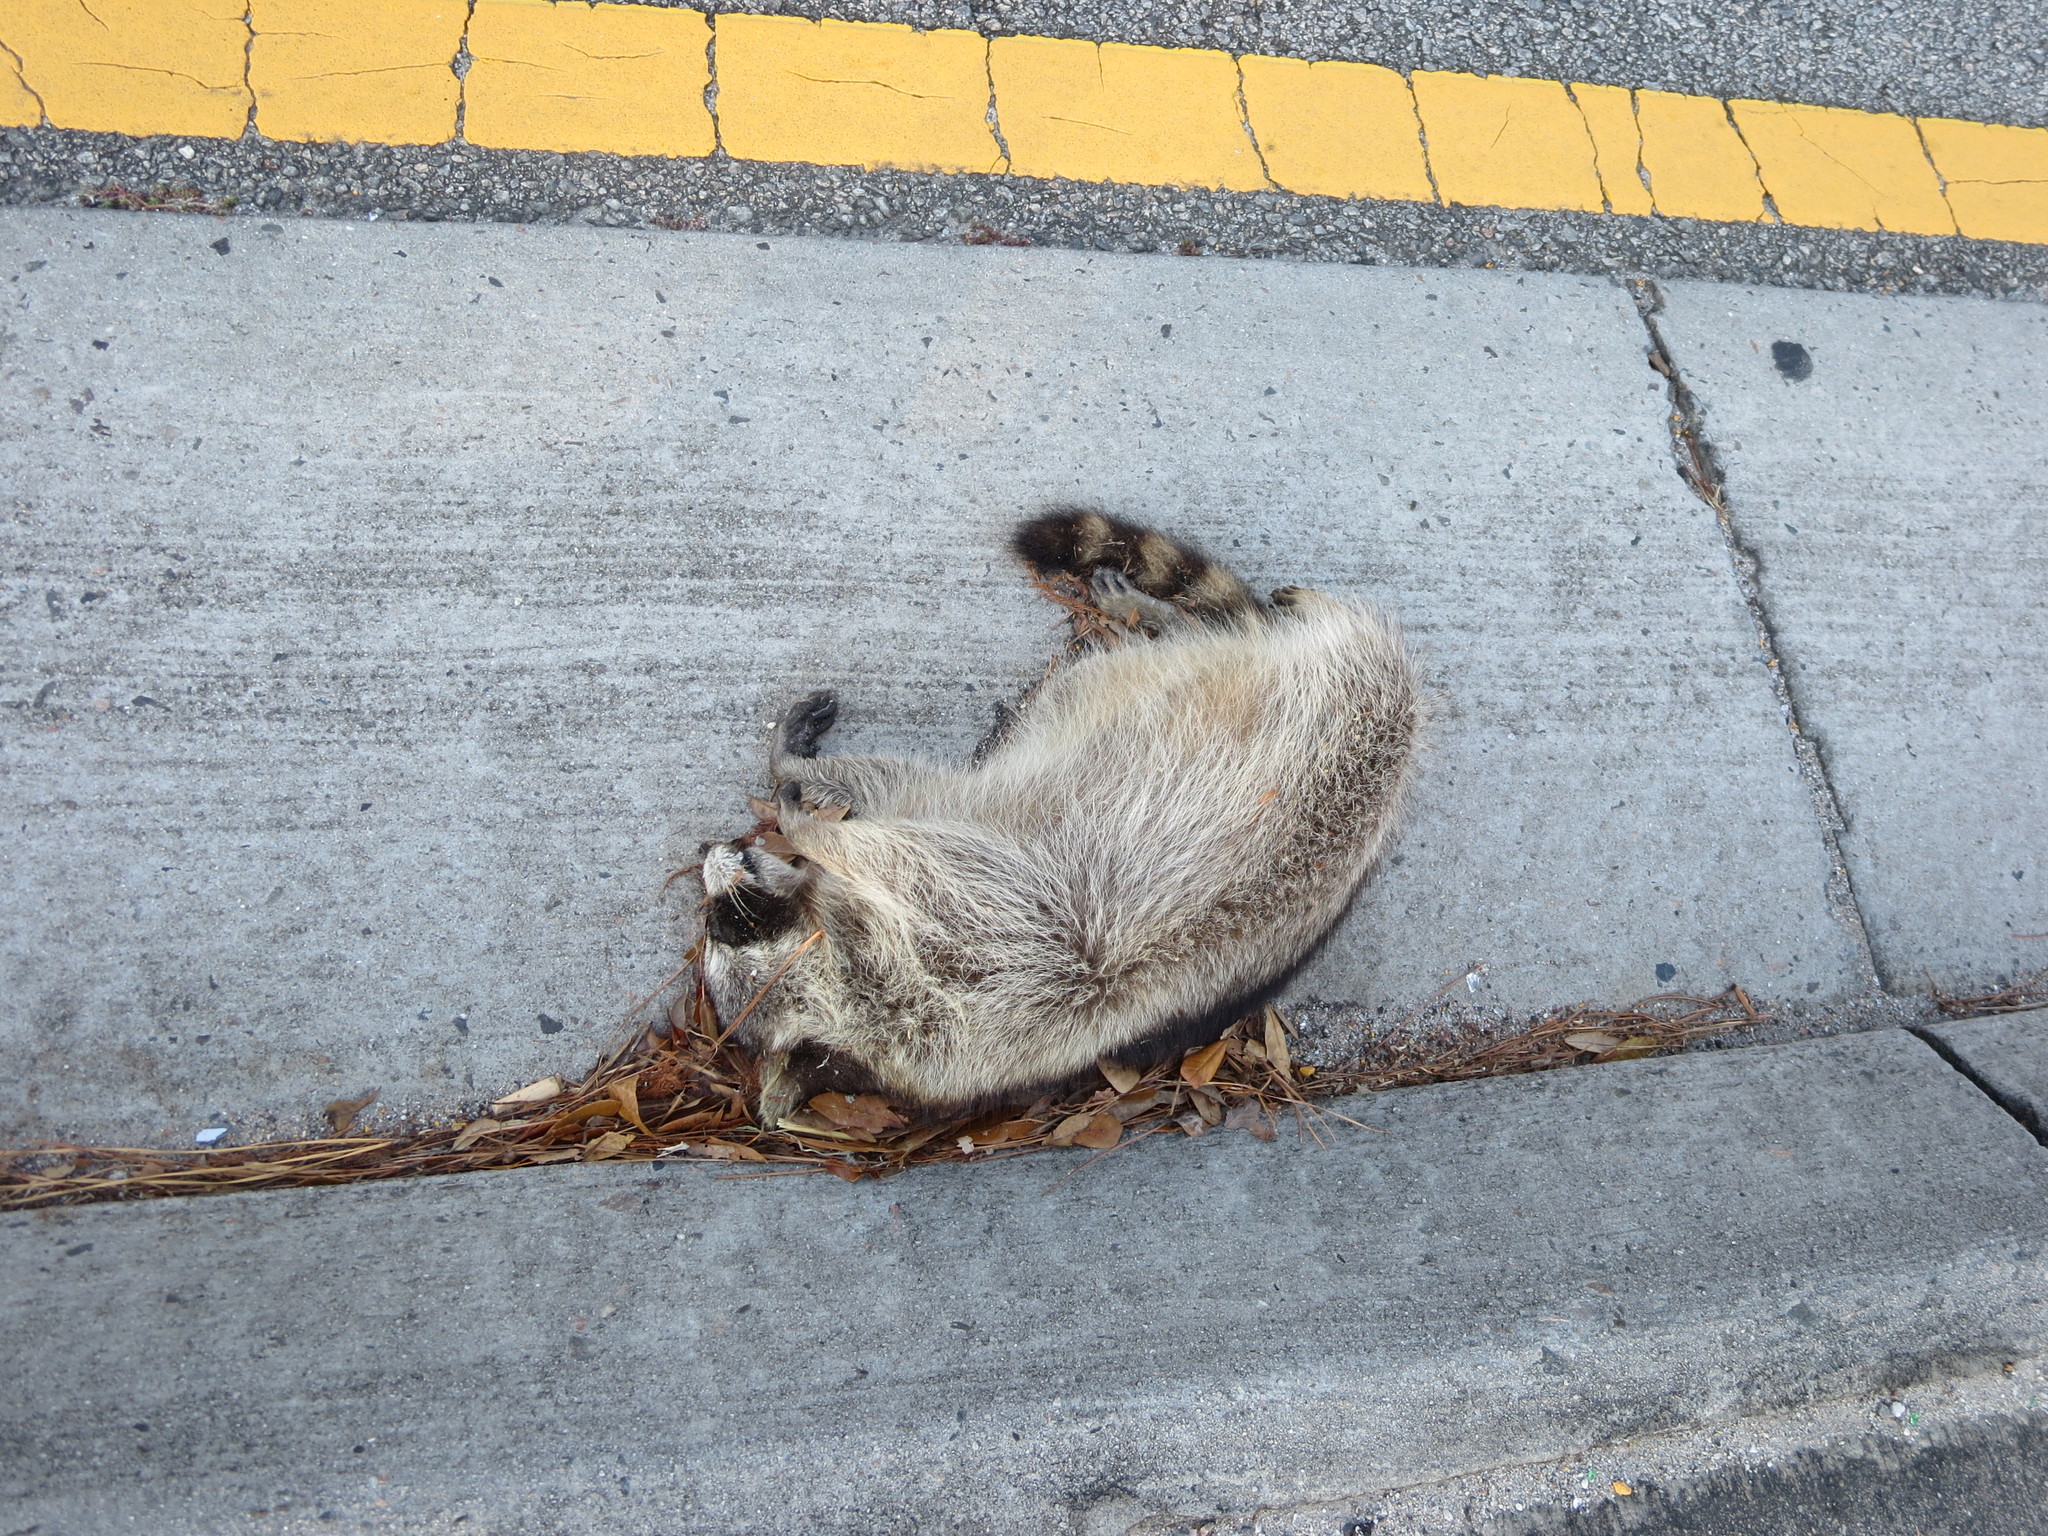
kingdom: Animalia
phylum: Chordata
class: Mammalia
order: Carnivora
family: Procyonidae
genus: Procyon
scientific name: Procyon lotor
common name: Raccoon
